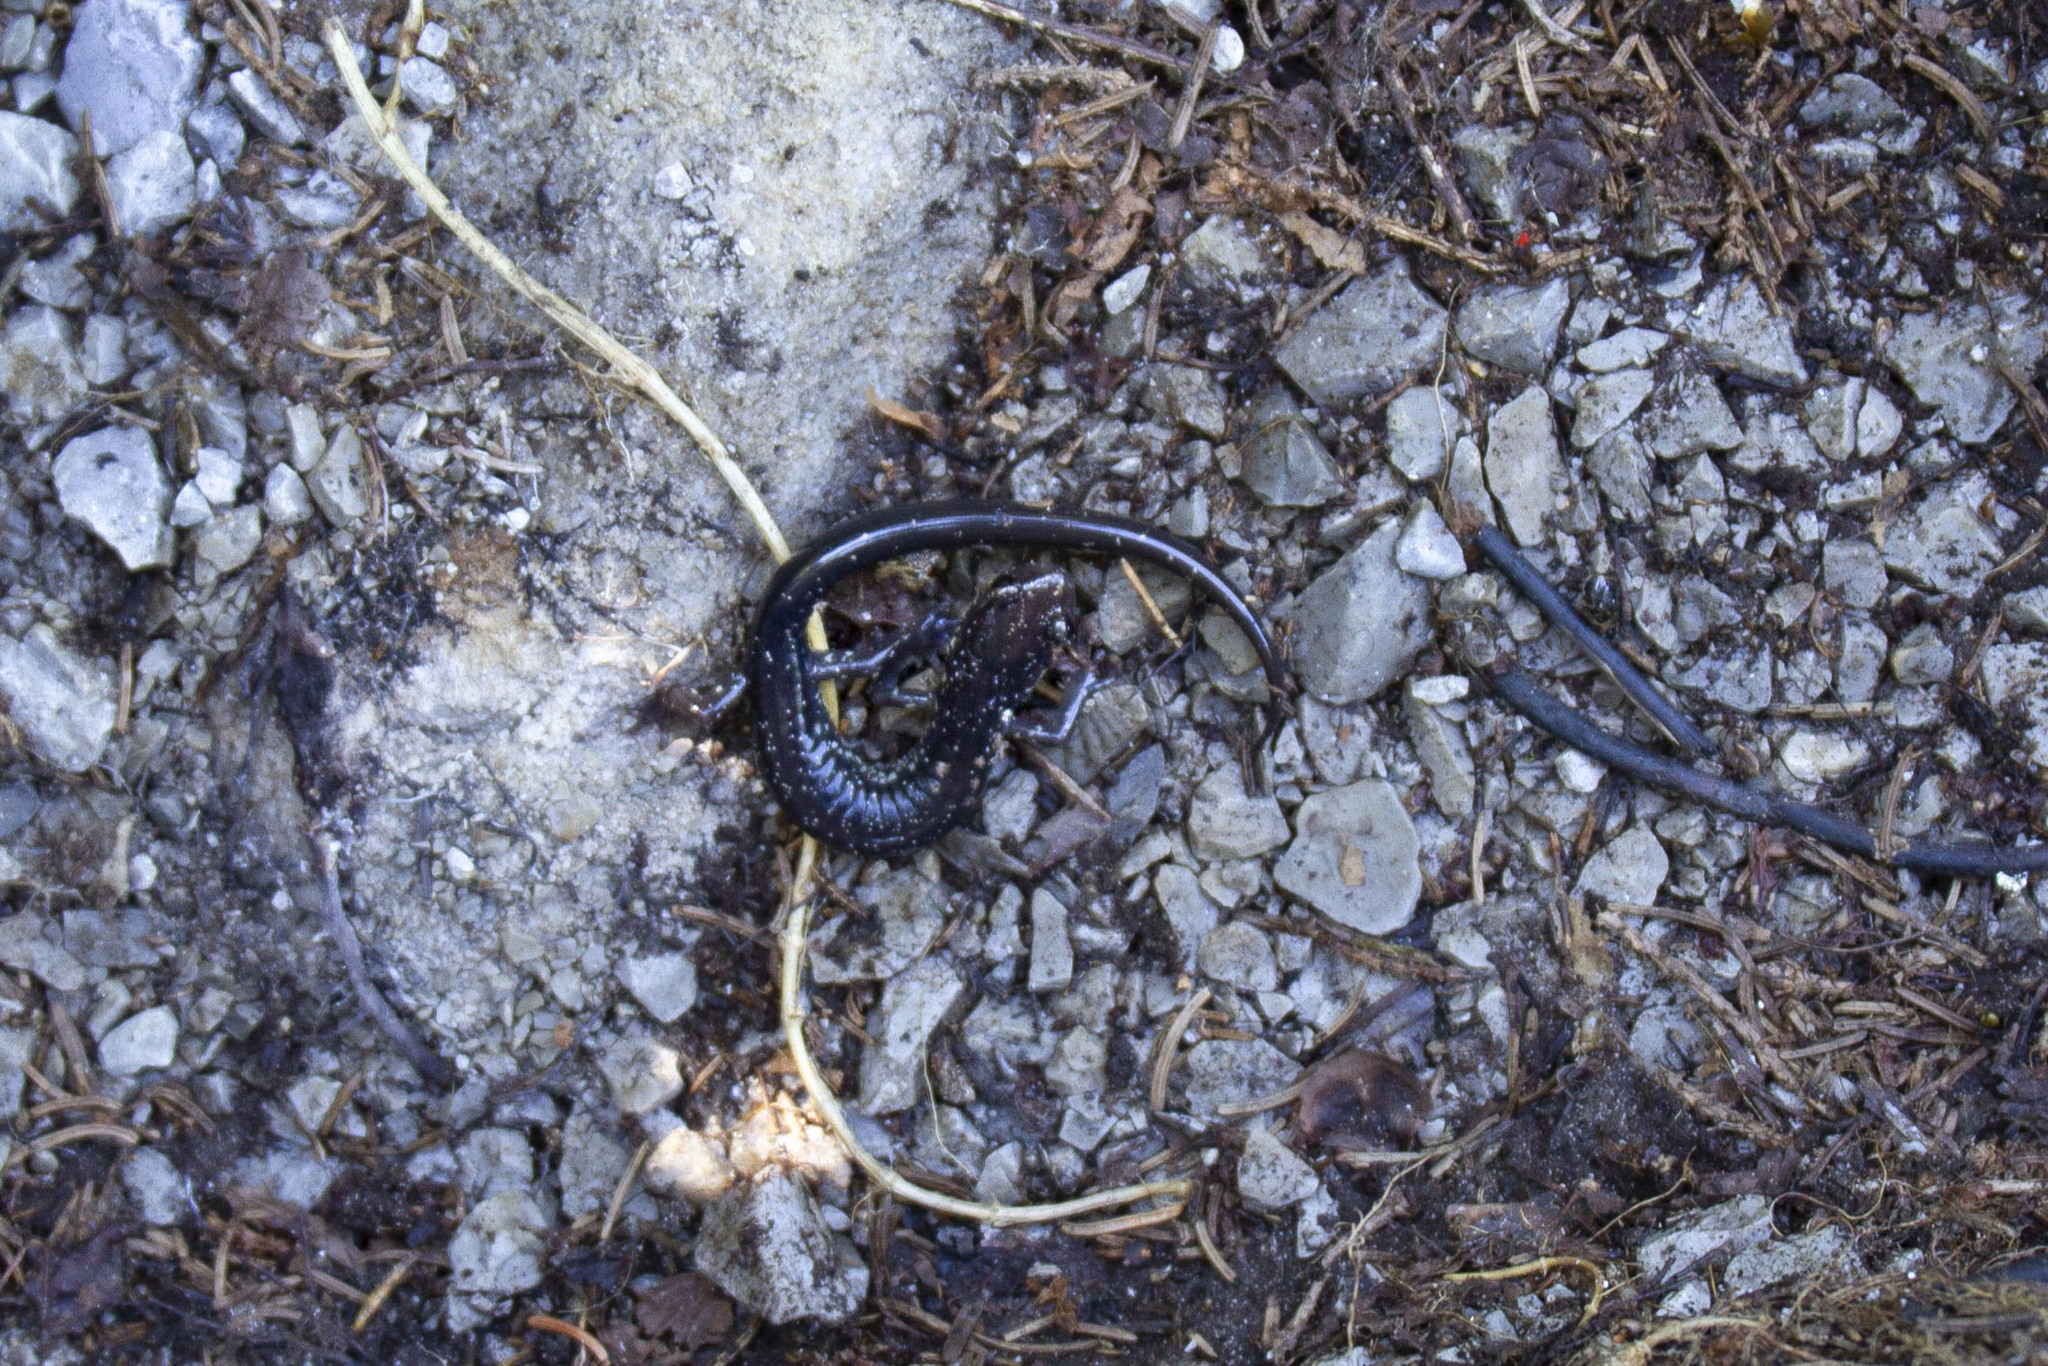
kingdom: Animalia
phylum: Chordata
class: Amphibia
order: Caudata
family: Plethodontidae
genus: Plethodon
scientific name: Plethodon wehrlei
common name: Wehrle's salamander
